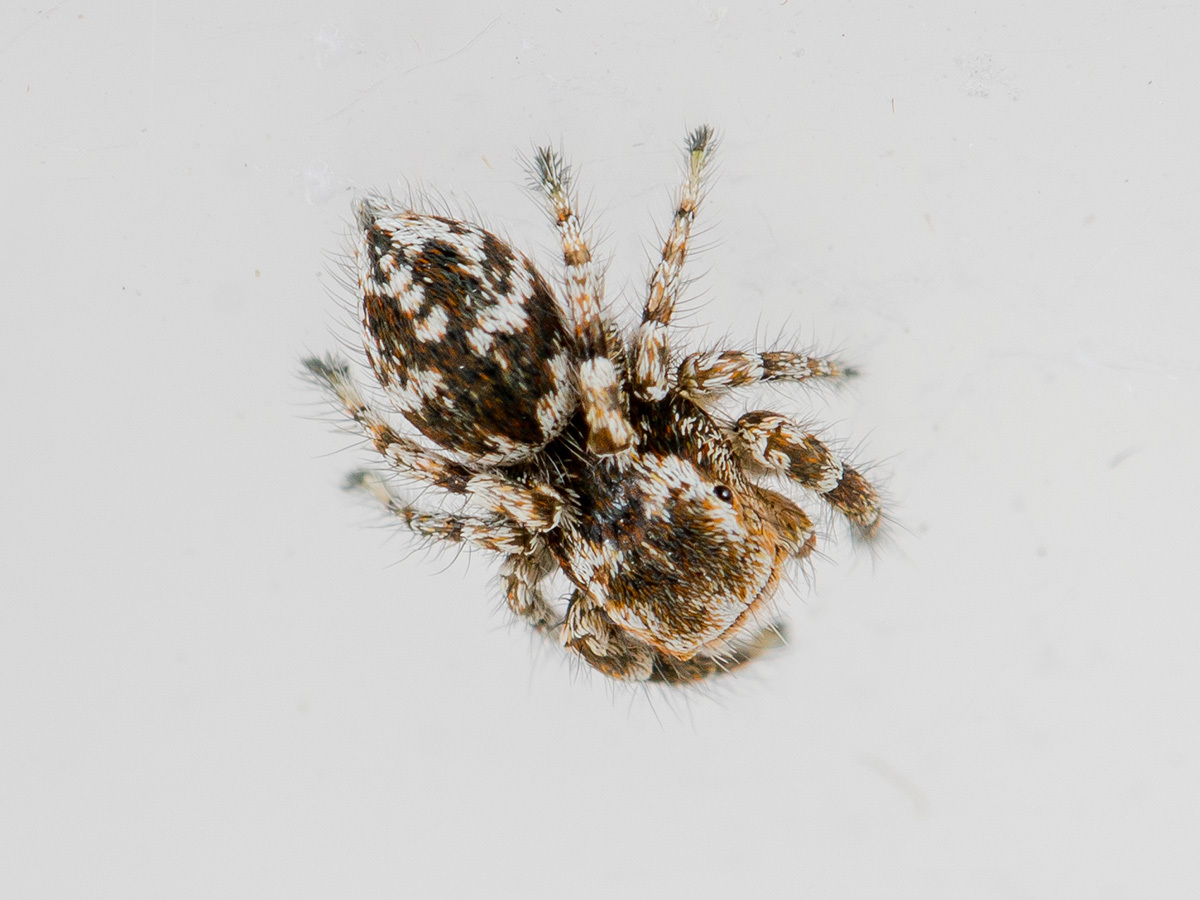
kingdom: Animalia
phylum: Arthropoda
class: Arachnida
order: Araneae
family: Salticidae
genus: Pseudomogrus
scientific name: Pseudomogrus pseudovalidus
